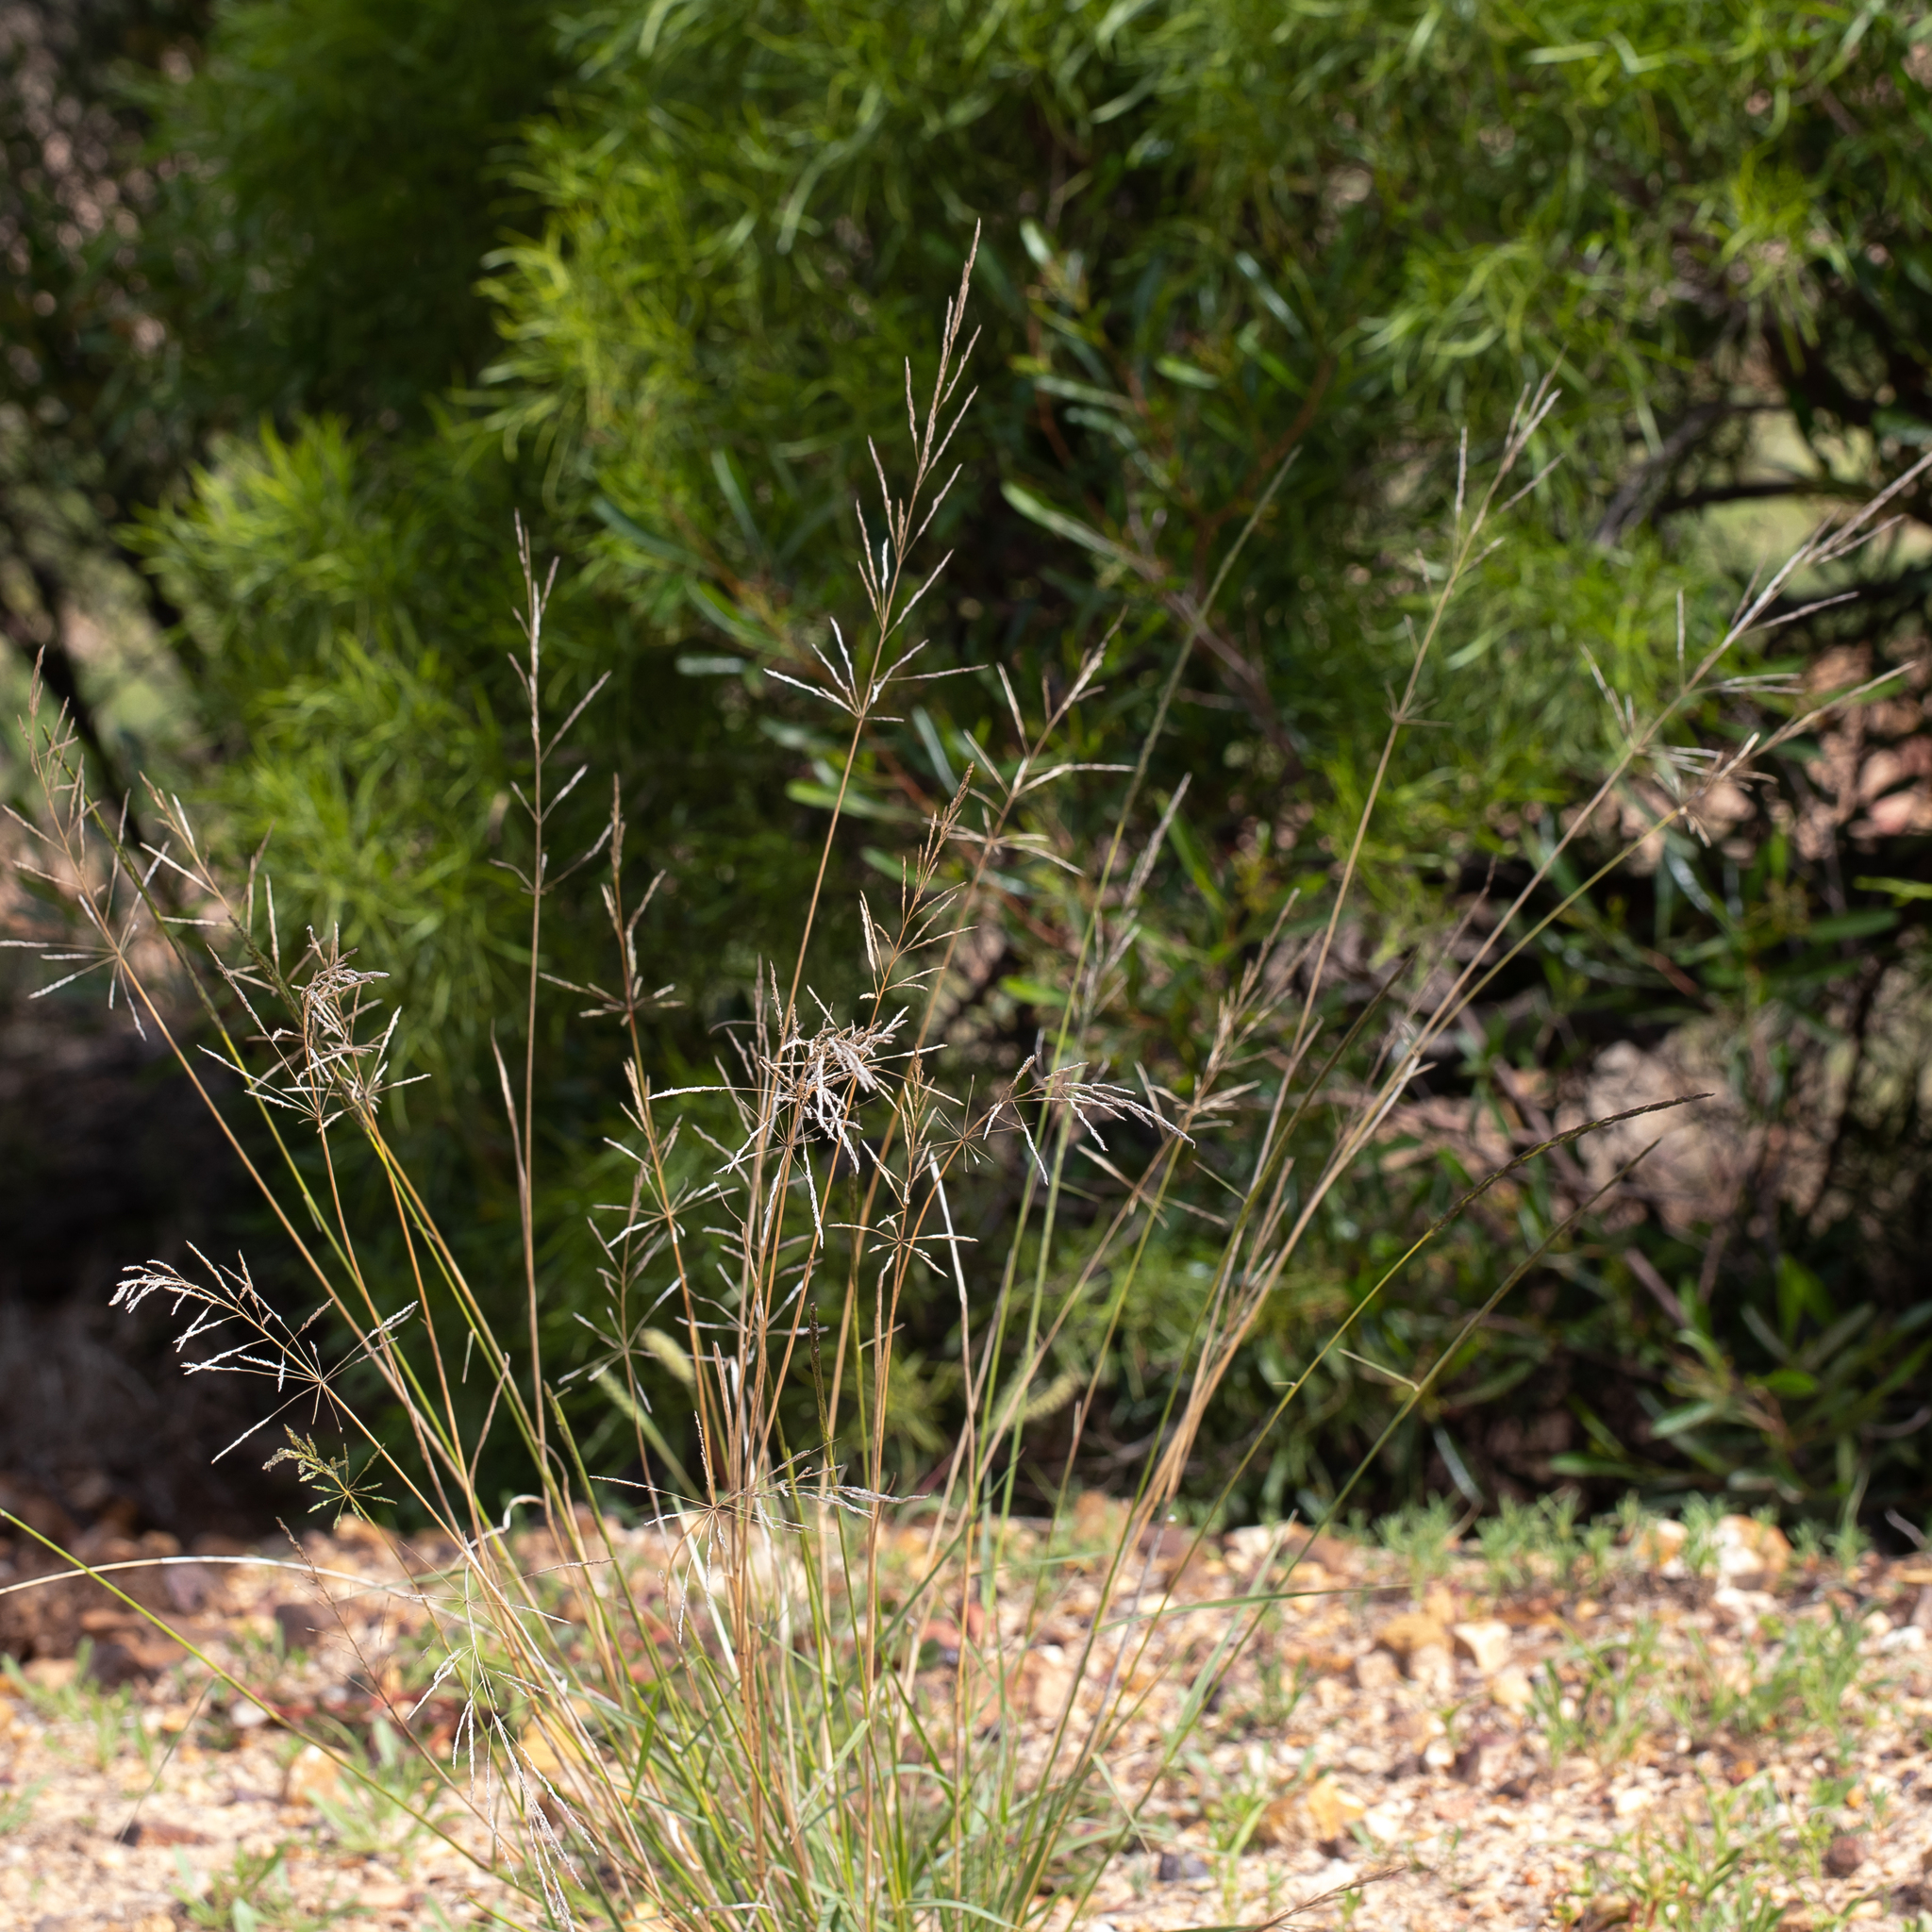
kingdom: Plantae
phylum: Tracheophyta
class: Liliopsida
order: Poales
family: Poaceae
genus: Sporobolus
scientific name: Sporobolus actinocladus
